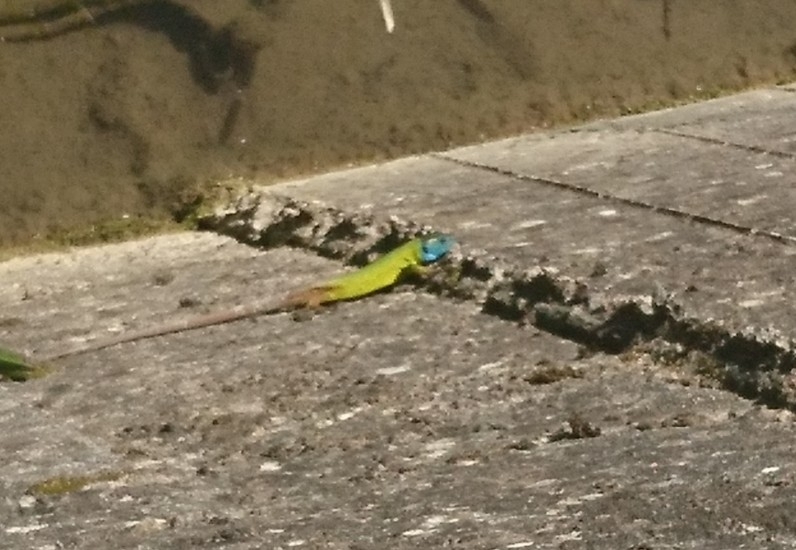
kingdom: Animalia
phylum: Chordata
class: Squamata
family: Lacertidae
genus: Lacerta
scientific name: Lacerta schreiberi
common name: Iberian emerald lizard
